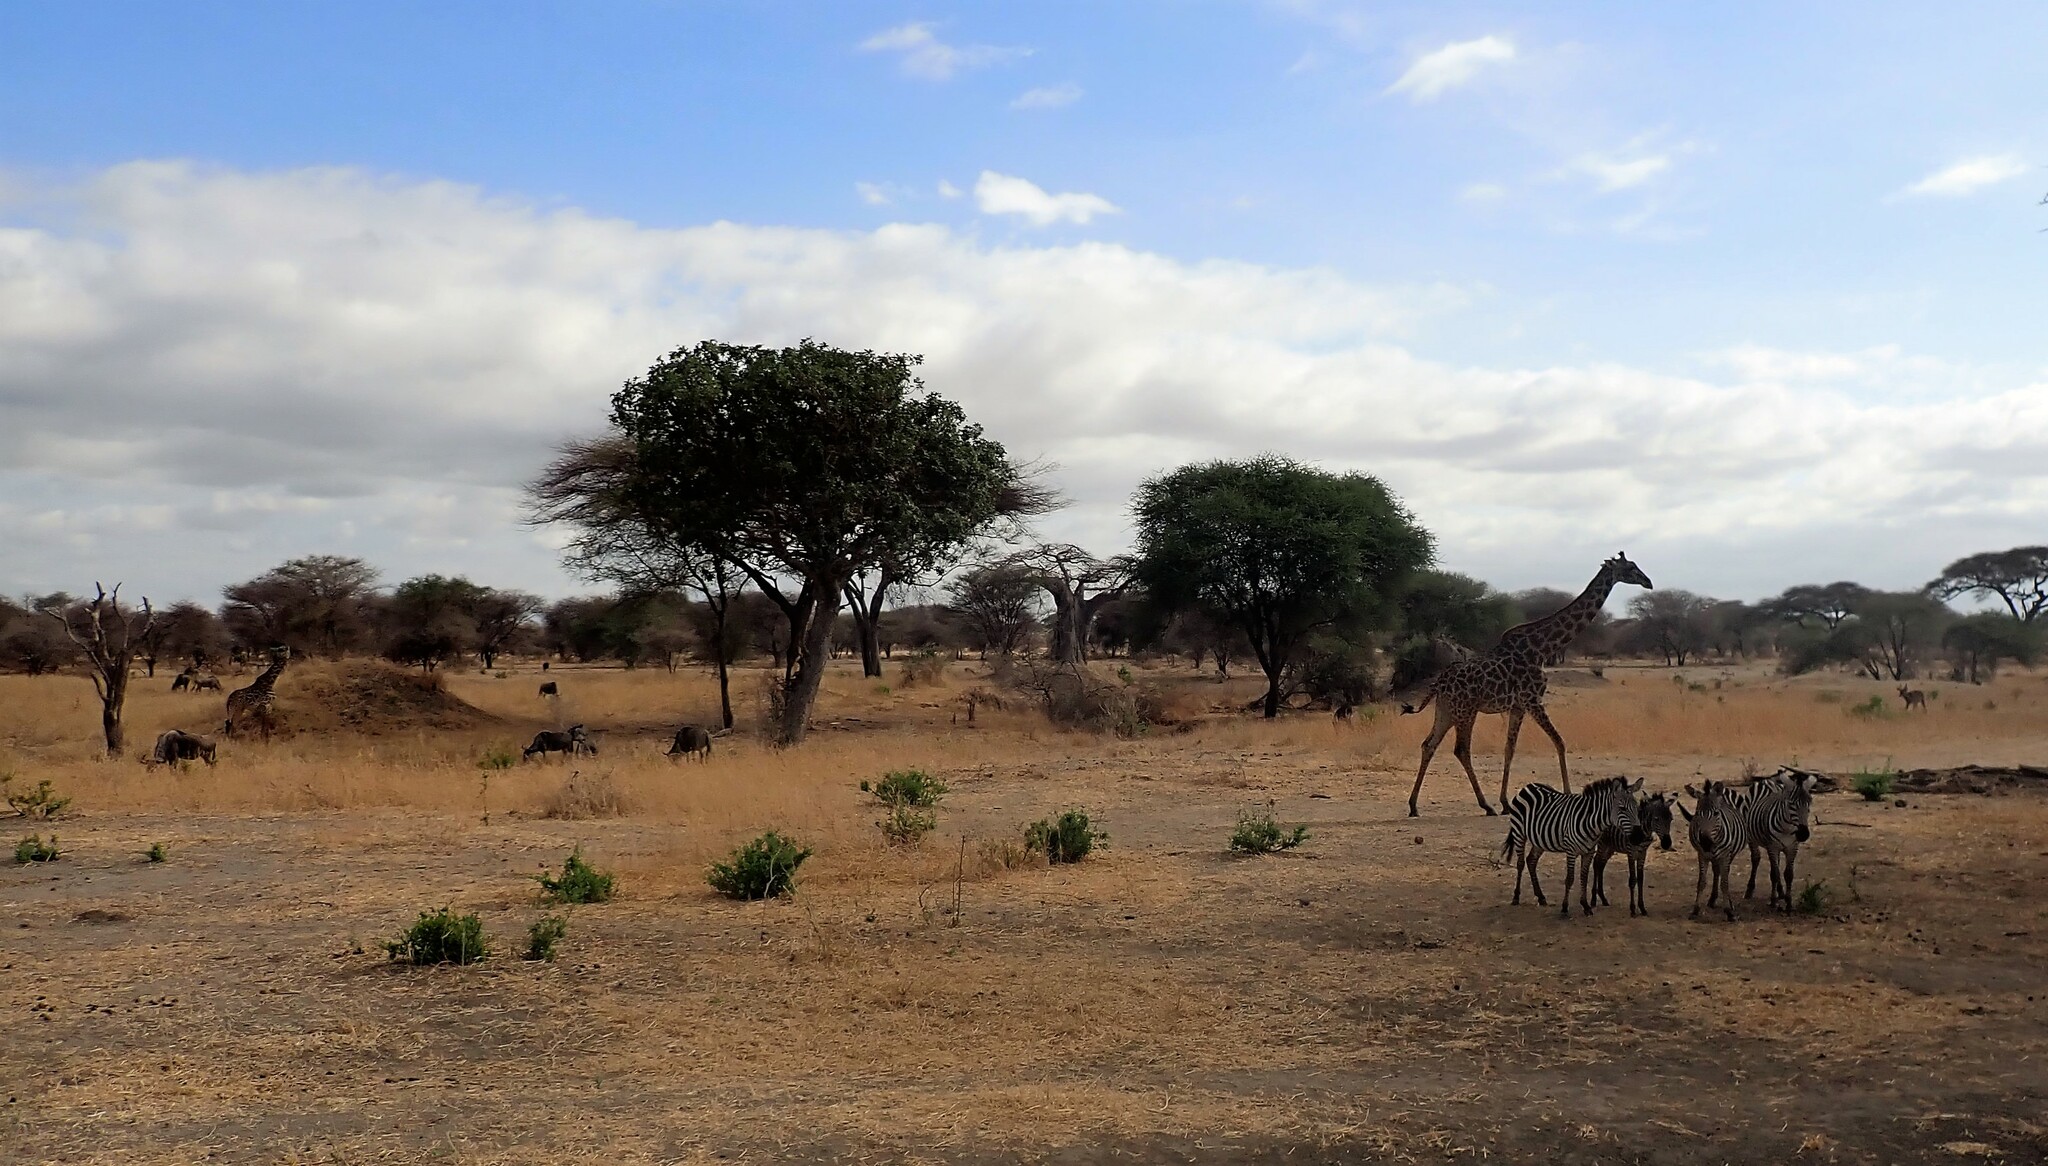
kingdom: Animalia
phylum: Chordata
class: Mammalia
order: Perissodactyla
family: Equidae
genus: Equus
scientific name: Equus quagga
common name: Plains zebra
